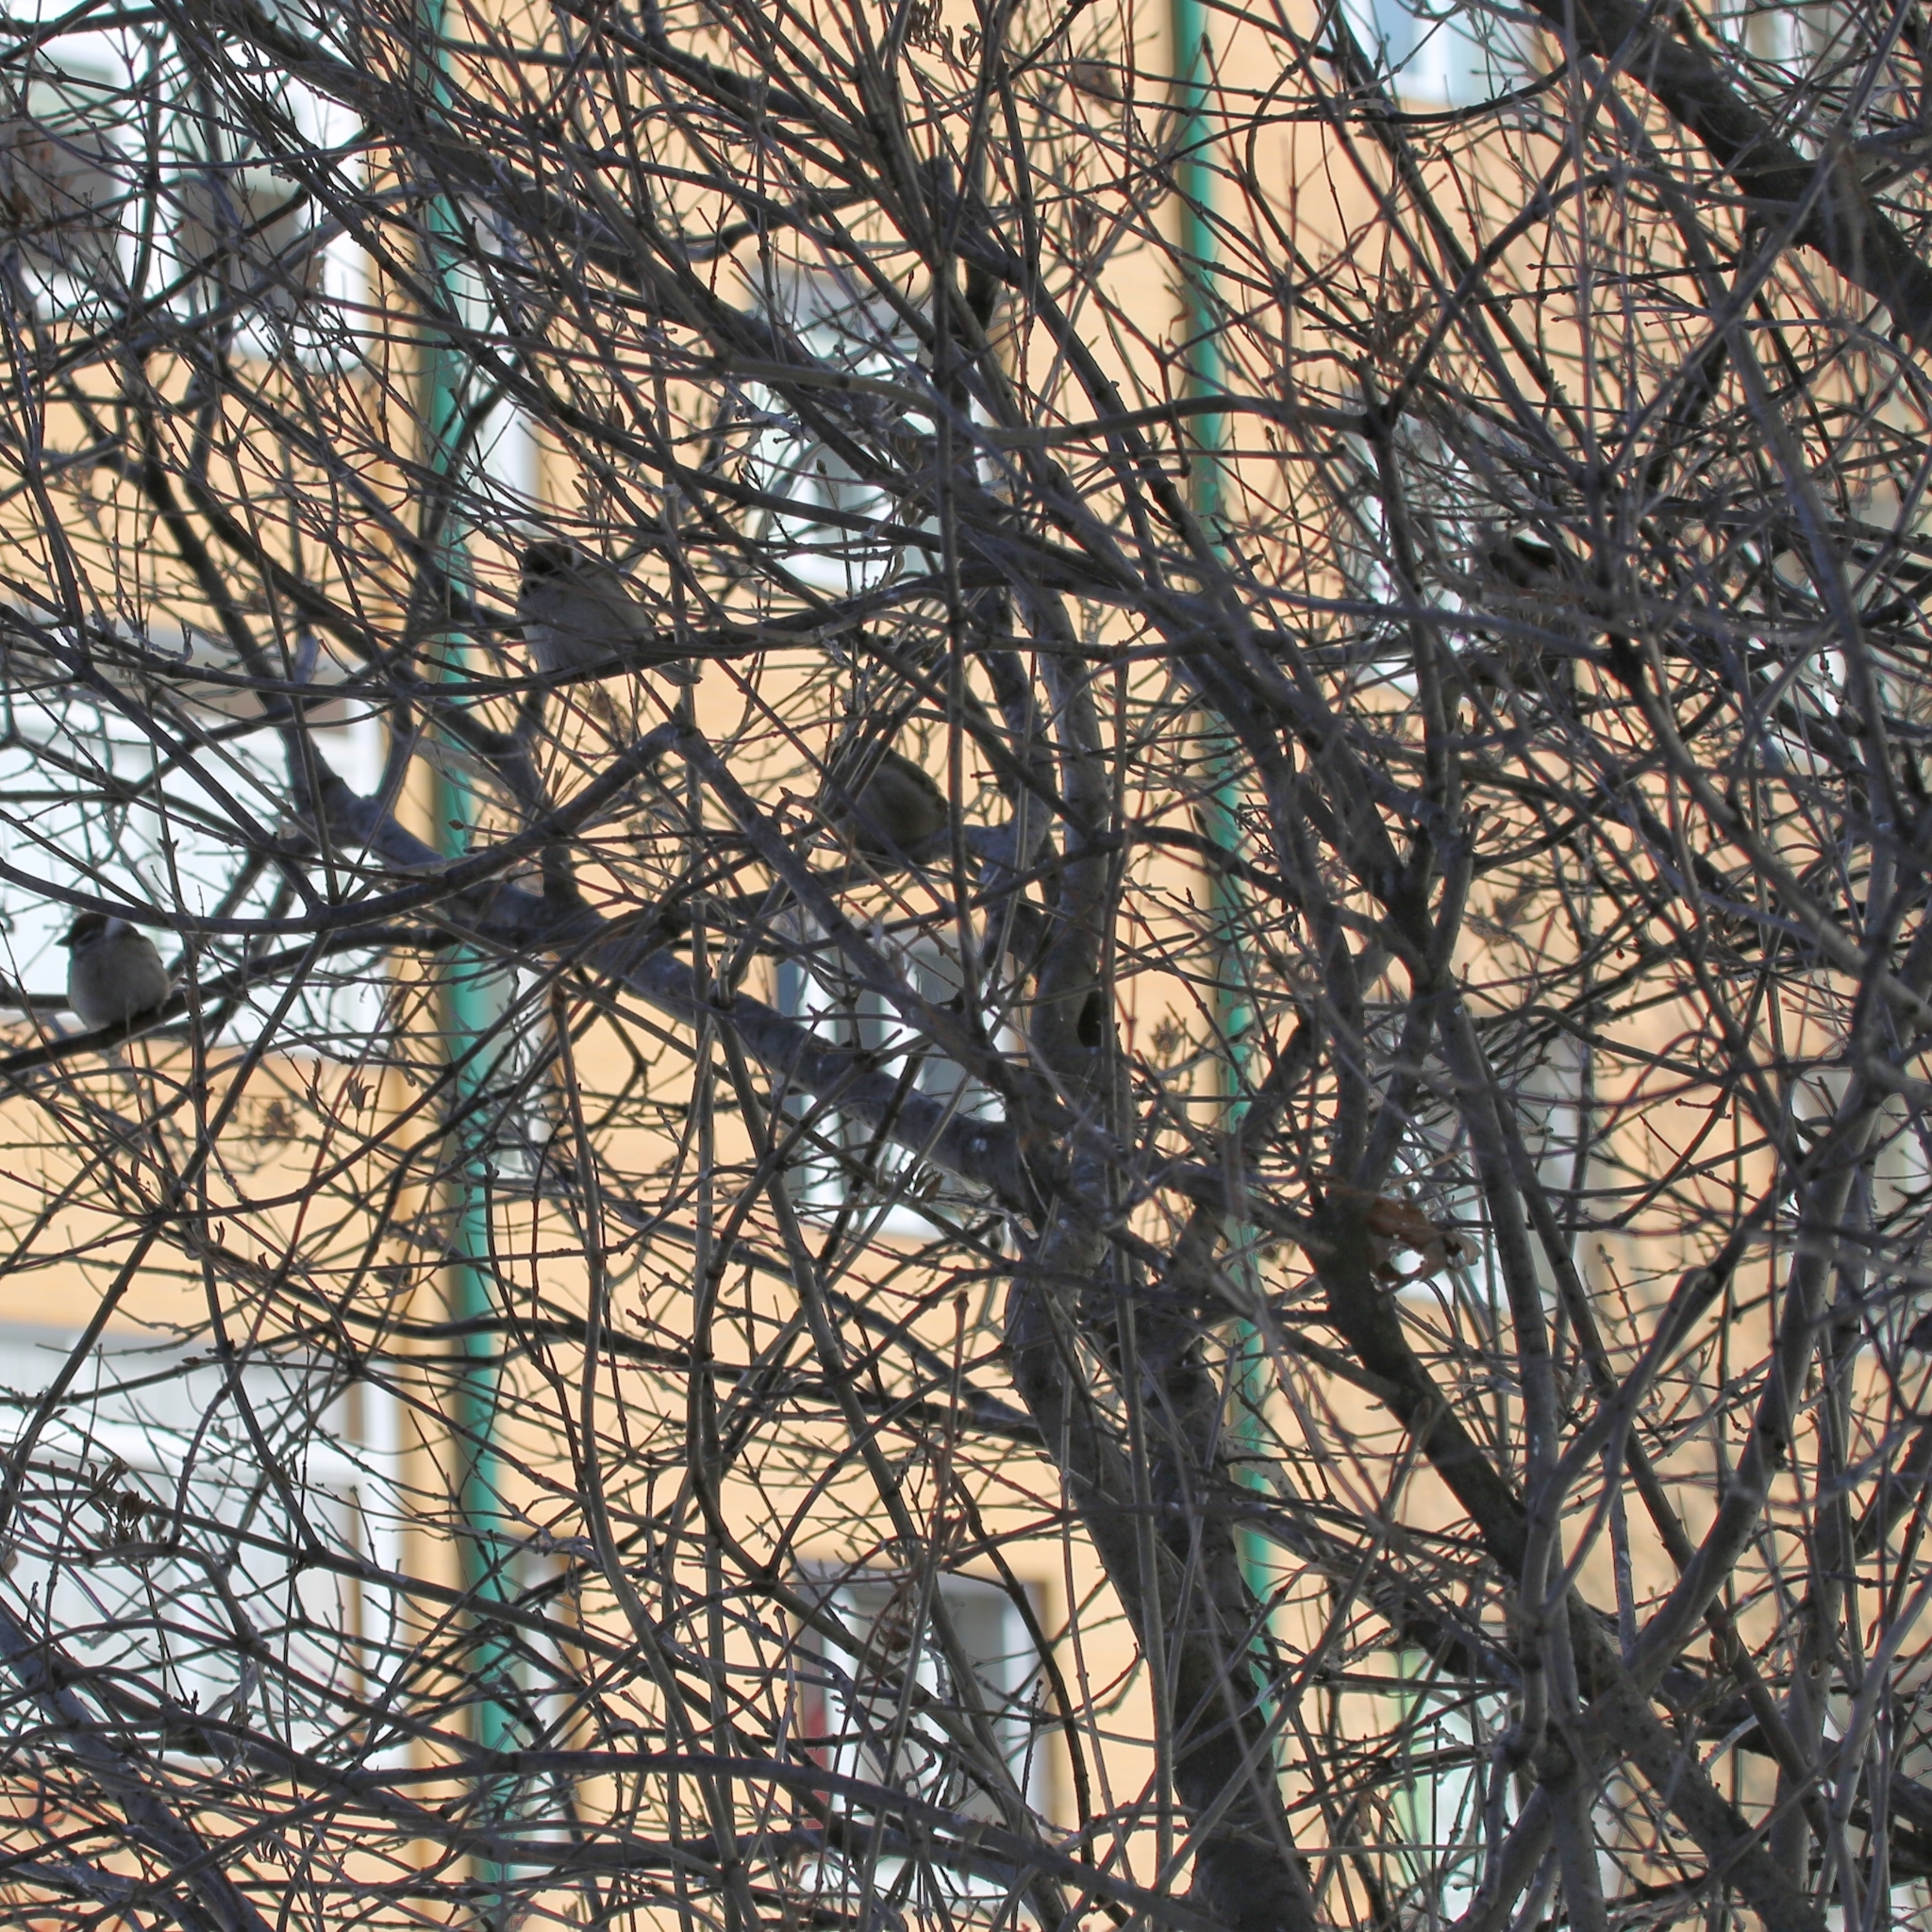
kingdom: Animalia
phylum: Chordata
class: Aves
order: Passeriformes
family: Passeridae
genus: Passer
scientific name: Passer montanus
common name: Eurasian tree sparrow
